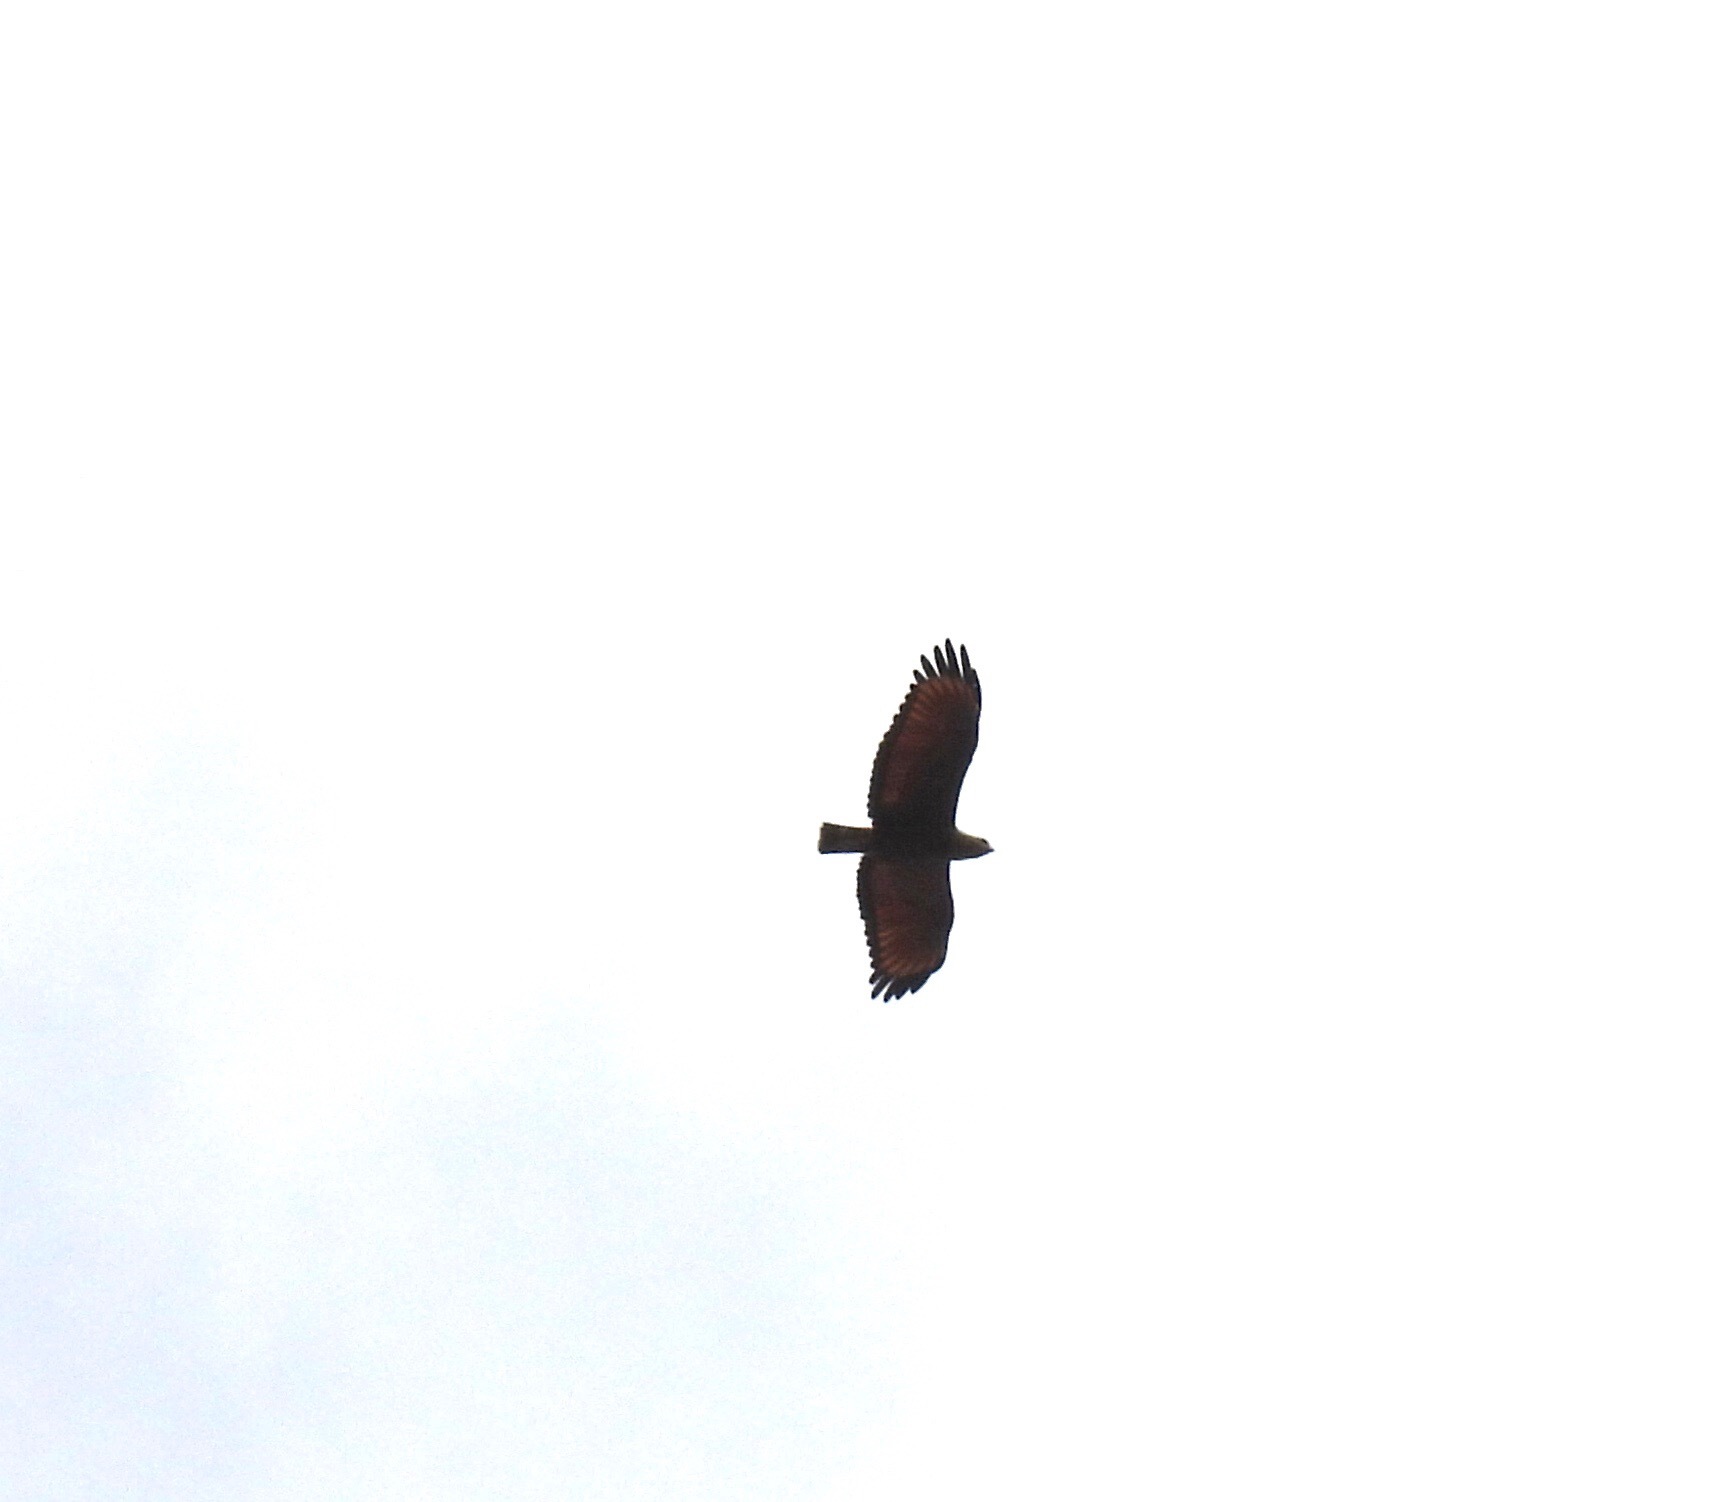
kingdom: Animalia
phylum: Chordata
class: Aves
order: Accipitriformes
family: Accipitridae
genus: Buteogallus
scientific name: Buteogallus meridionalis
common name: Savanna hawk
